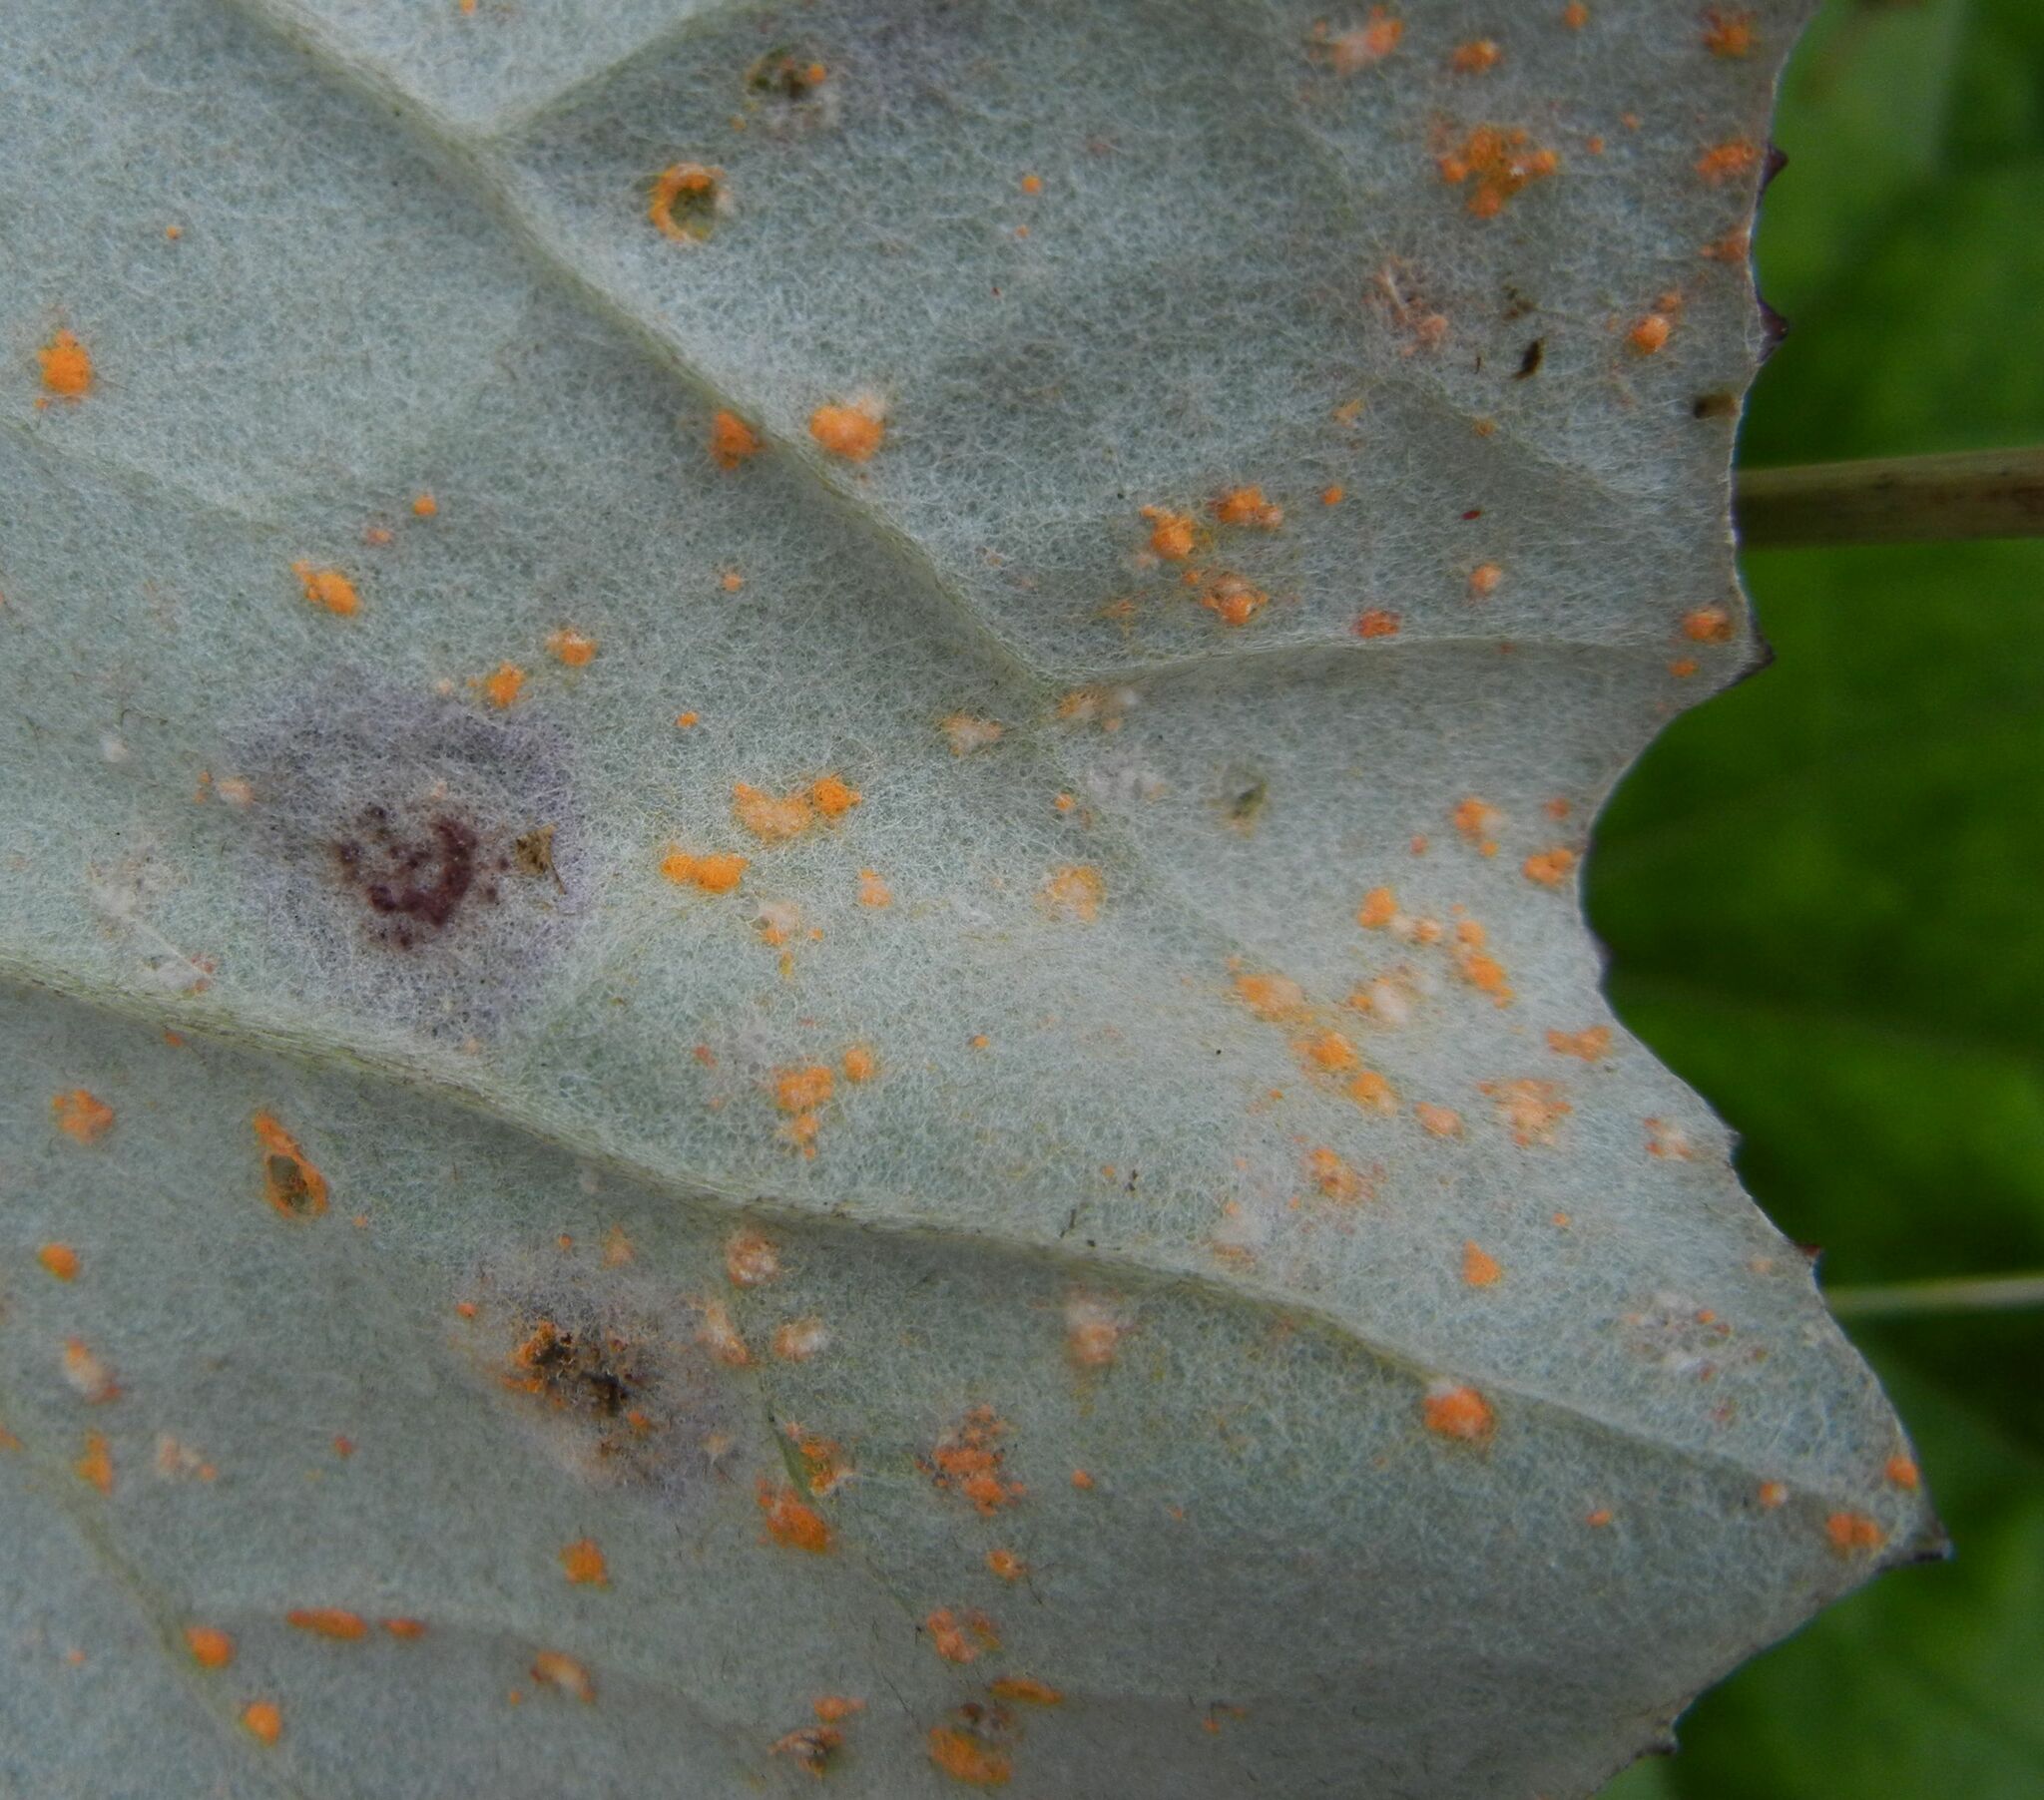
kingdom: Fungi
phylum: Basidiomycota
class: Pucciniomycetes
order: Pucciniales
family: Coleosporiaceae
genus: Coleosporium
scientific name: Coleosporium tussilaginis
